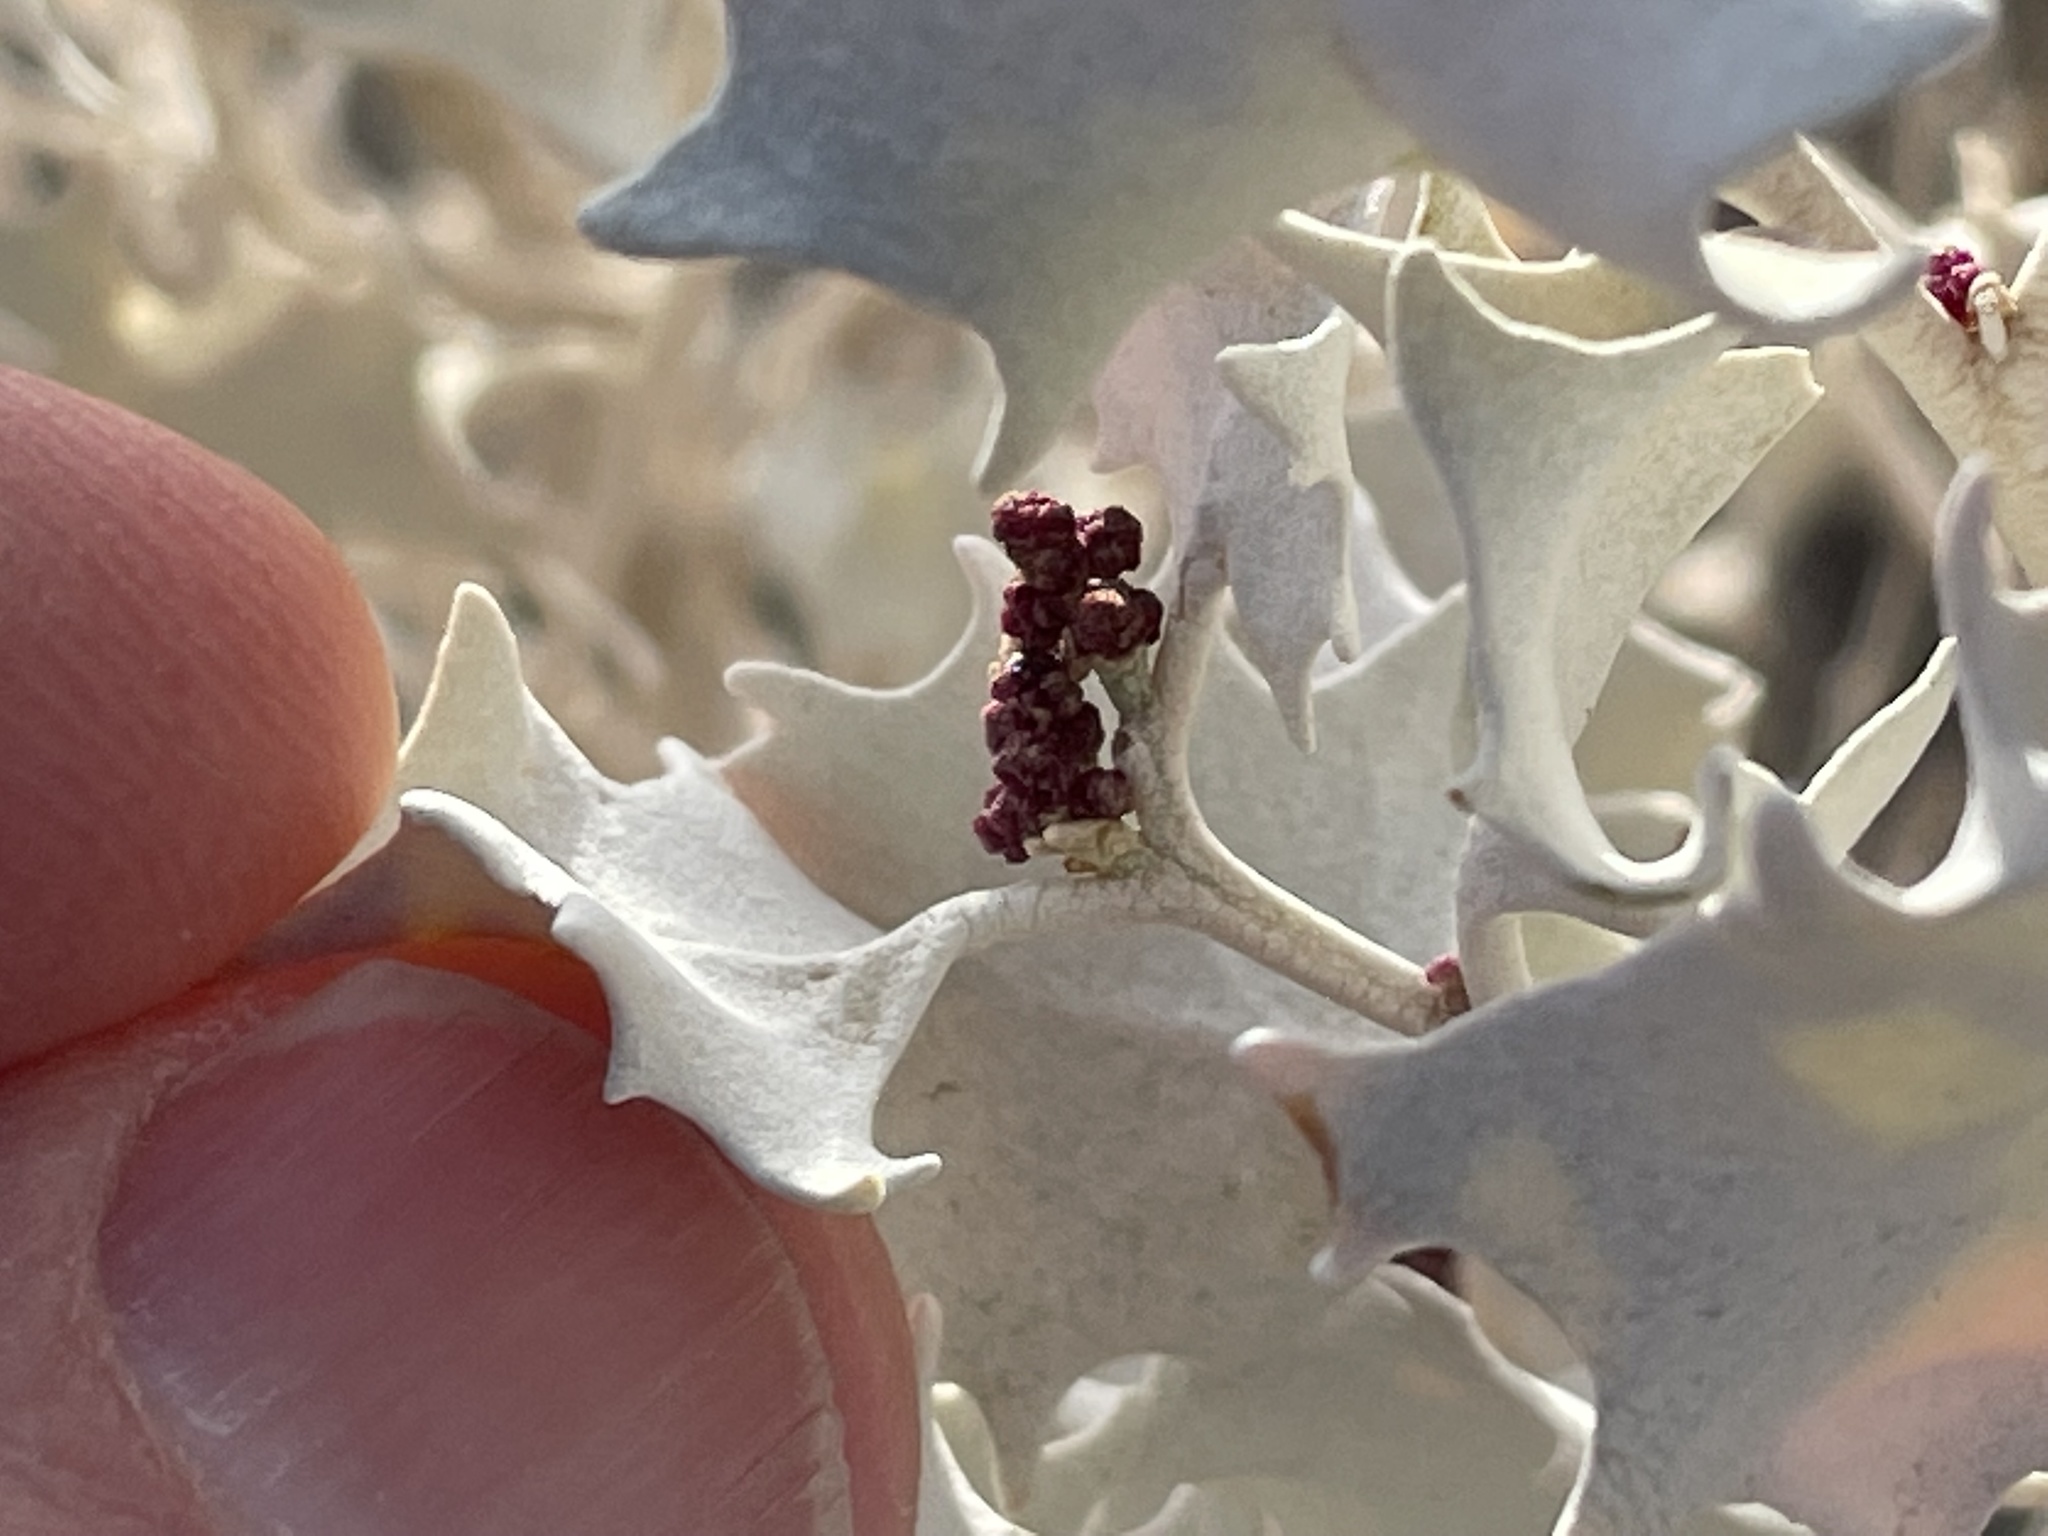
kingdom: Plantae
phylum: Tracheophyta
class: Magnoliopsida
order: Caryophyllales
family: Amaranthaceae
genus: Atriplex
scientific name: Atriplex hymenelytra
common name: Desert-holly
